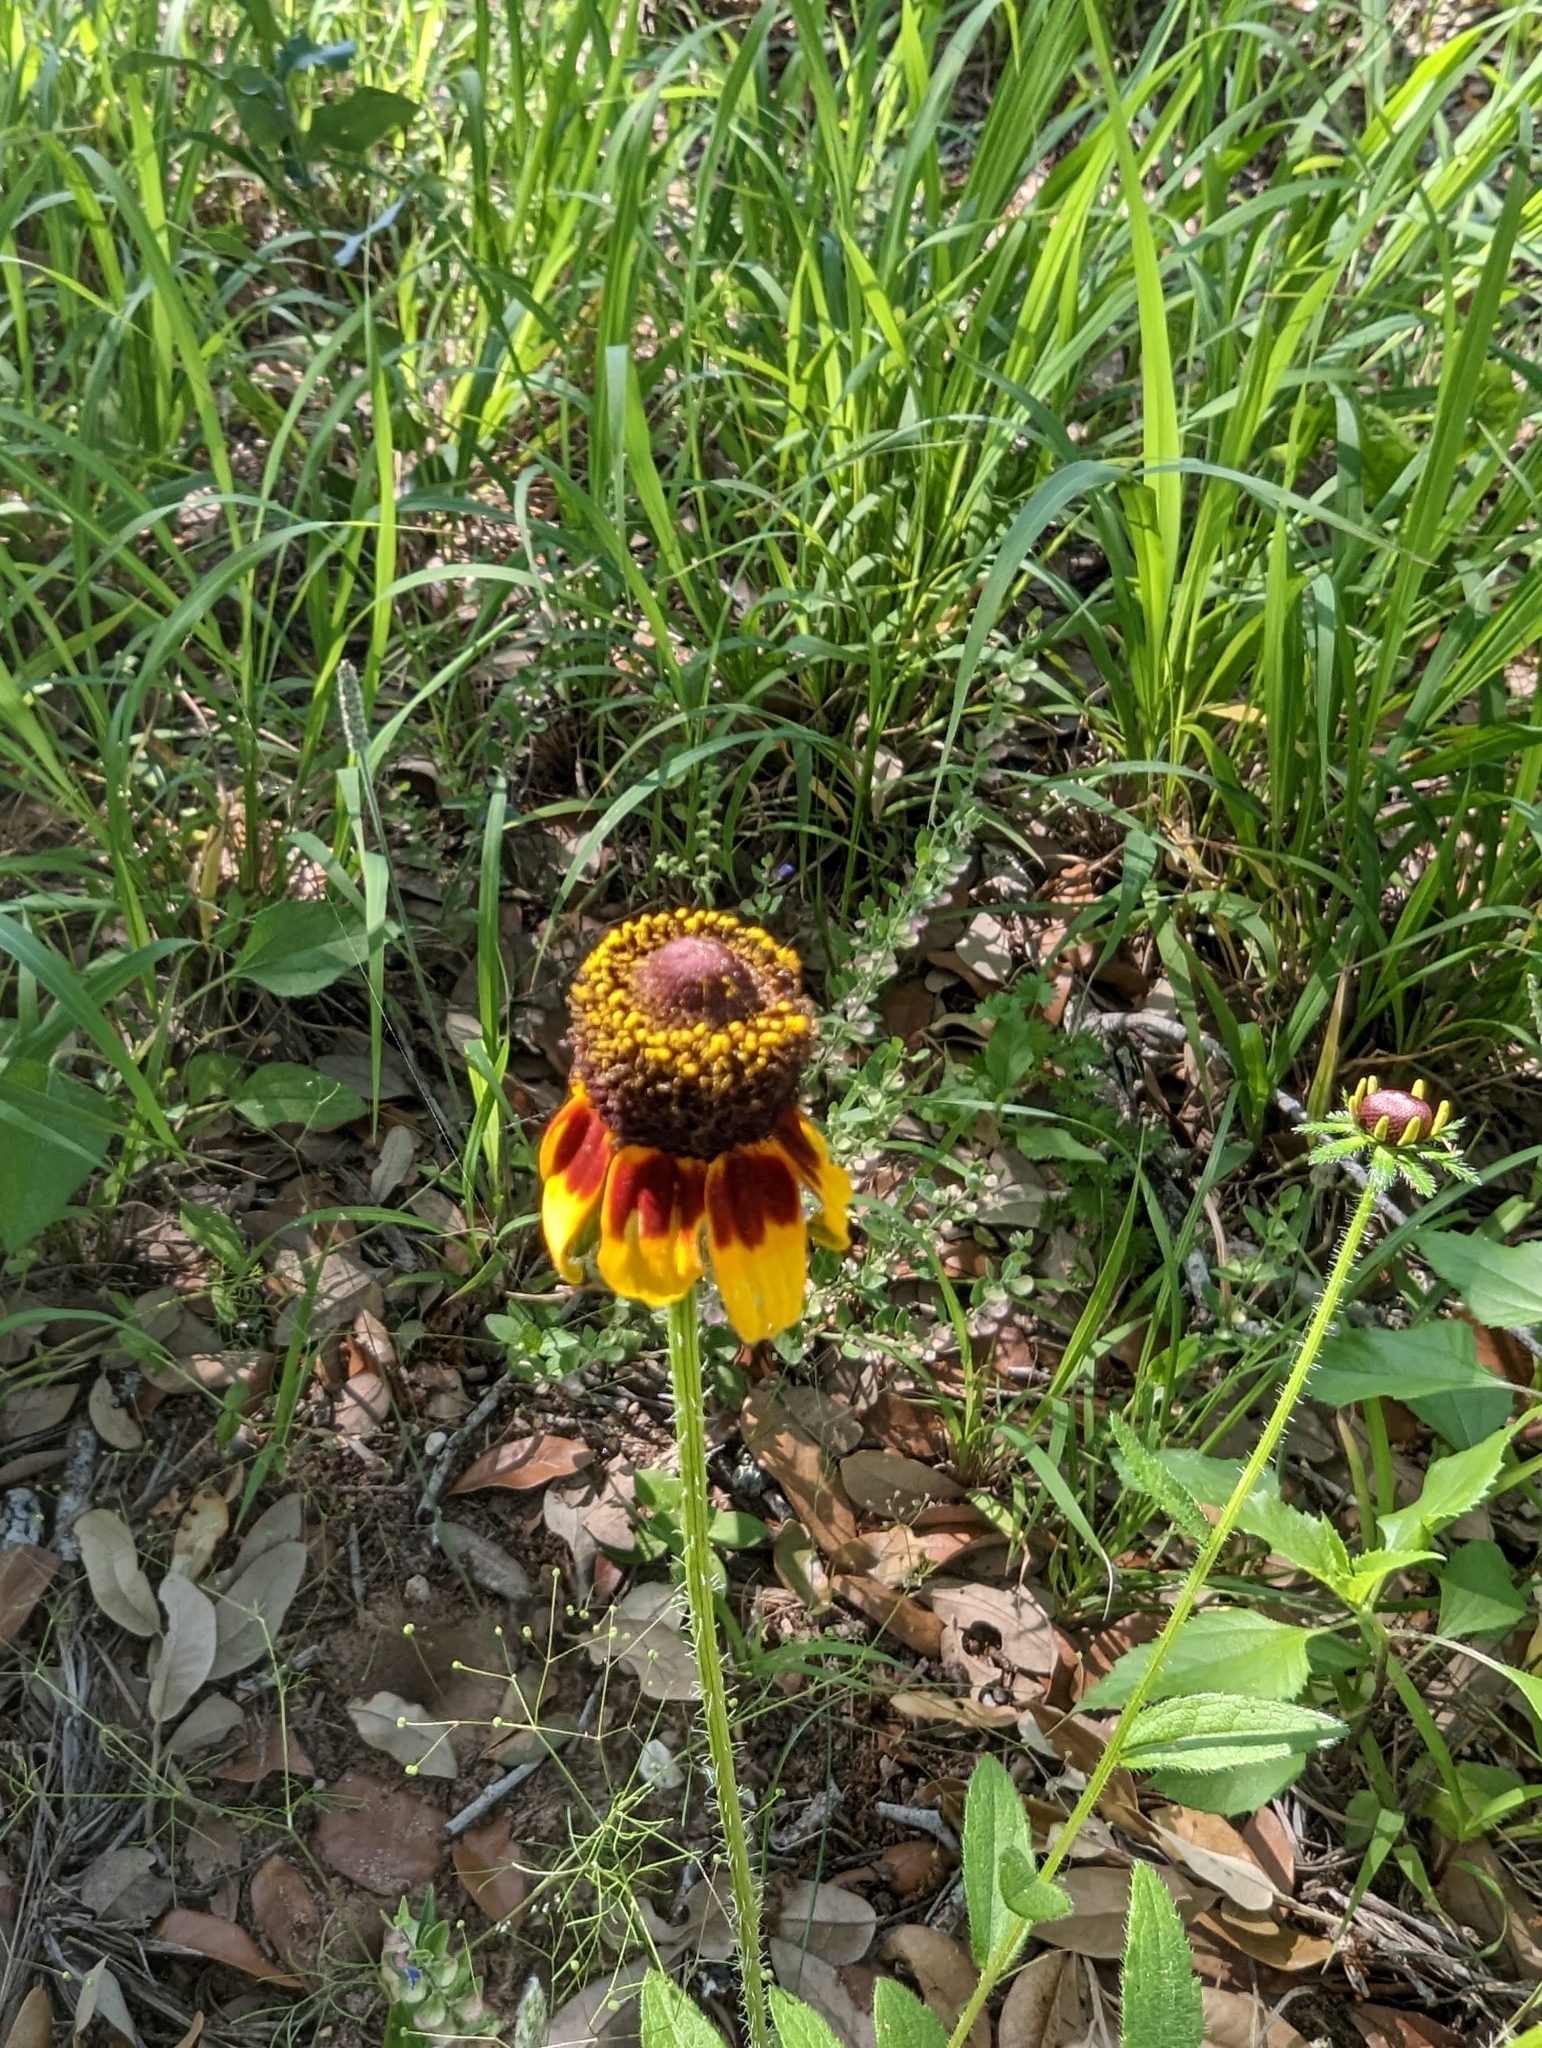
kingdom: Plantae
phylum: Tracheophyta
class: Magnoliopsida
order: Asterales
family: Asteraceae
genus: Rudbeckia
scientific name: Rudbeckia hirta
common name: Black-eyed-susan
